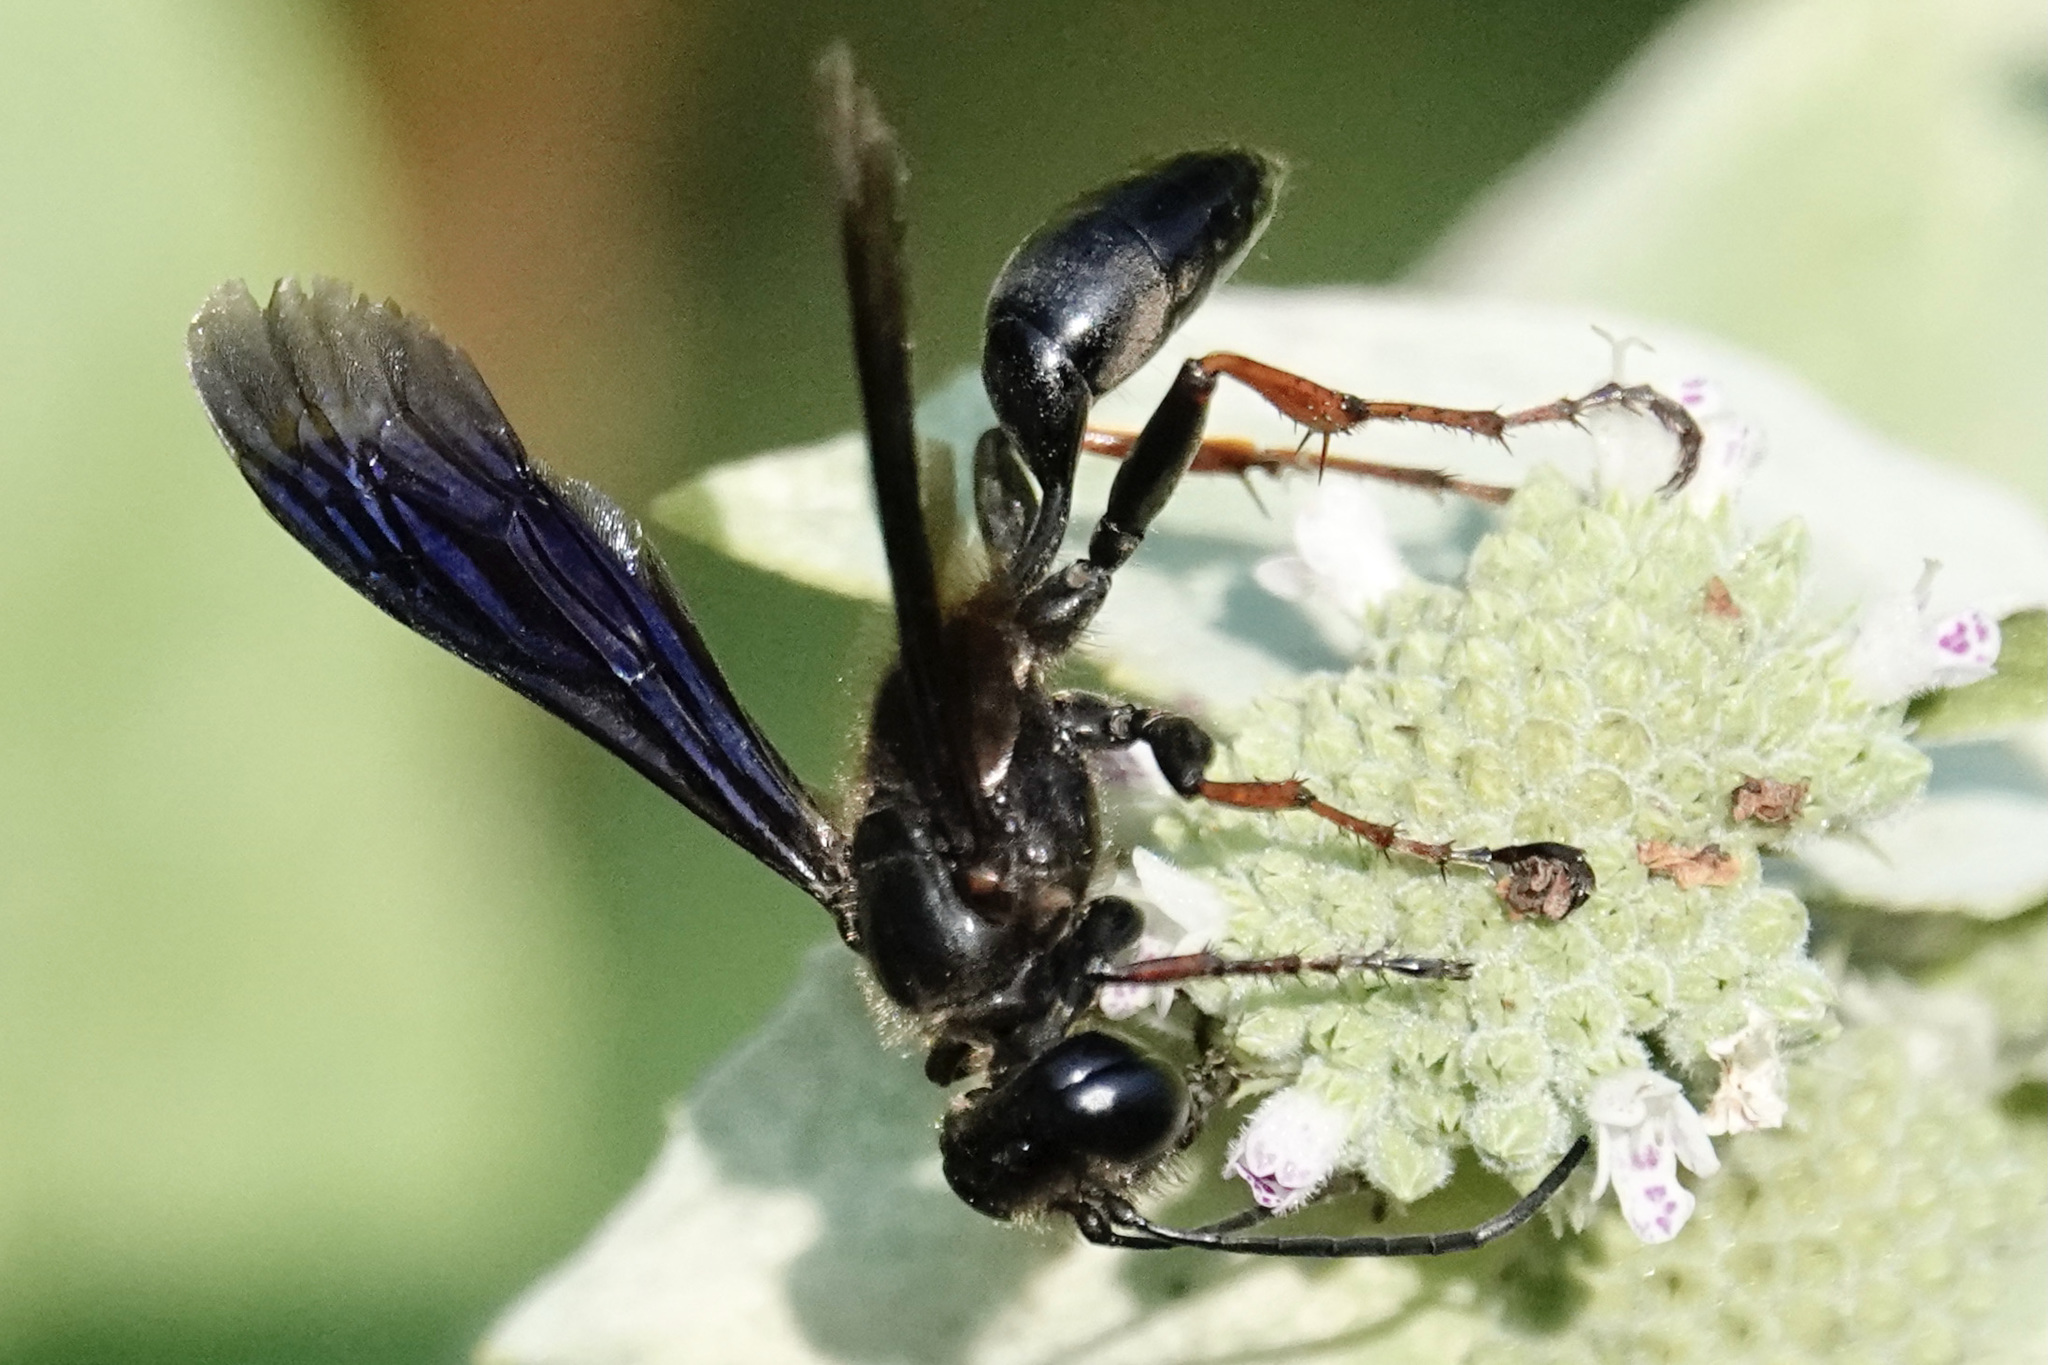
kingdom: Animalia
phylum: Arthropoda
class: Insecta
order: Hymenoptera
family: Sphecidae
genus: Isodontia
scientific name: Isodontia auripes
